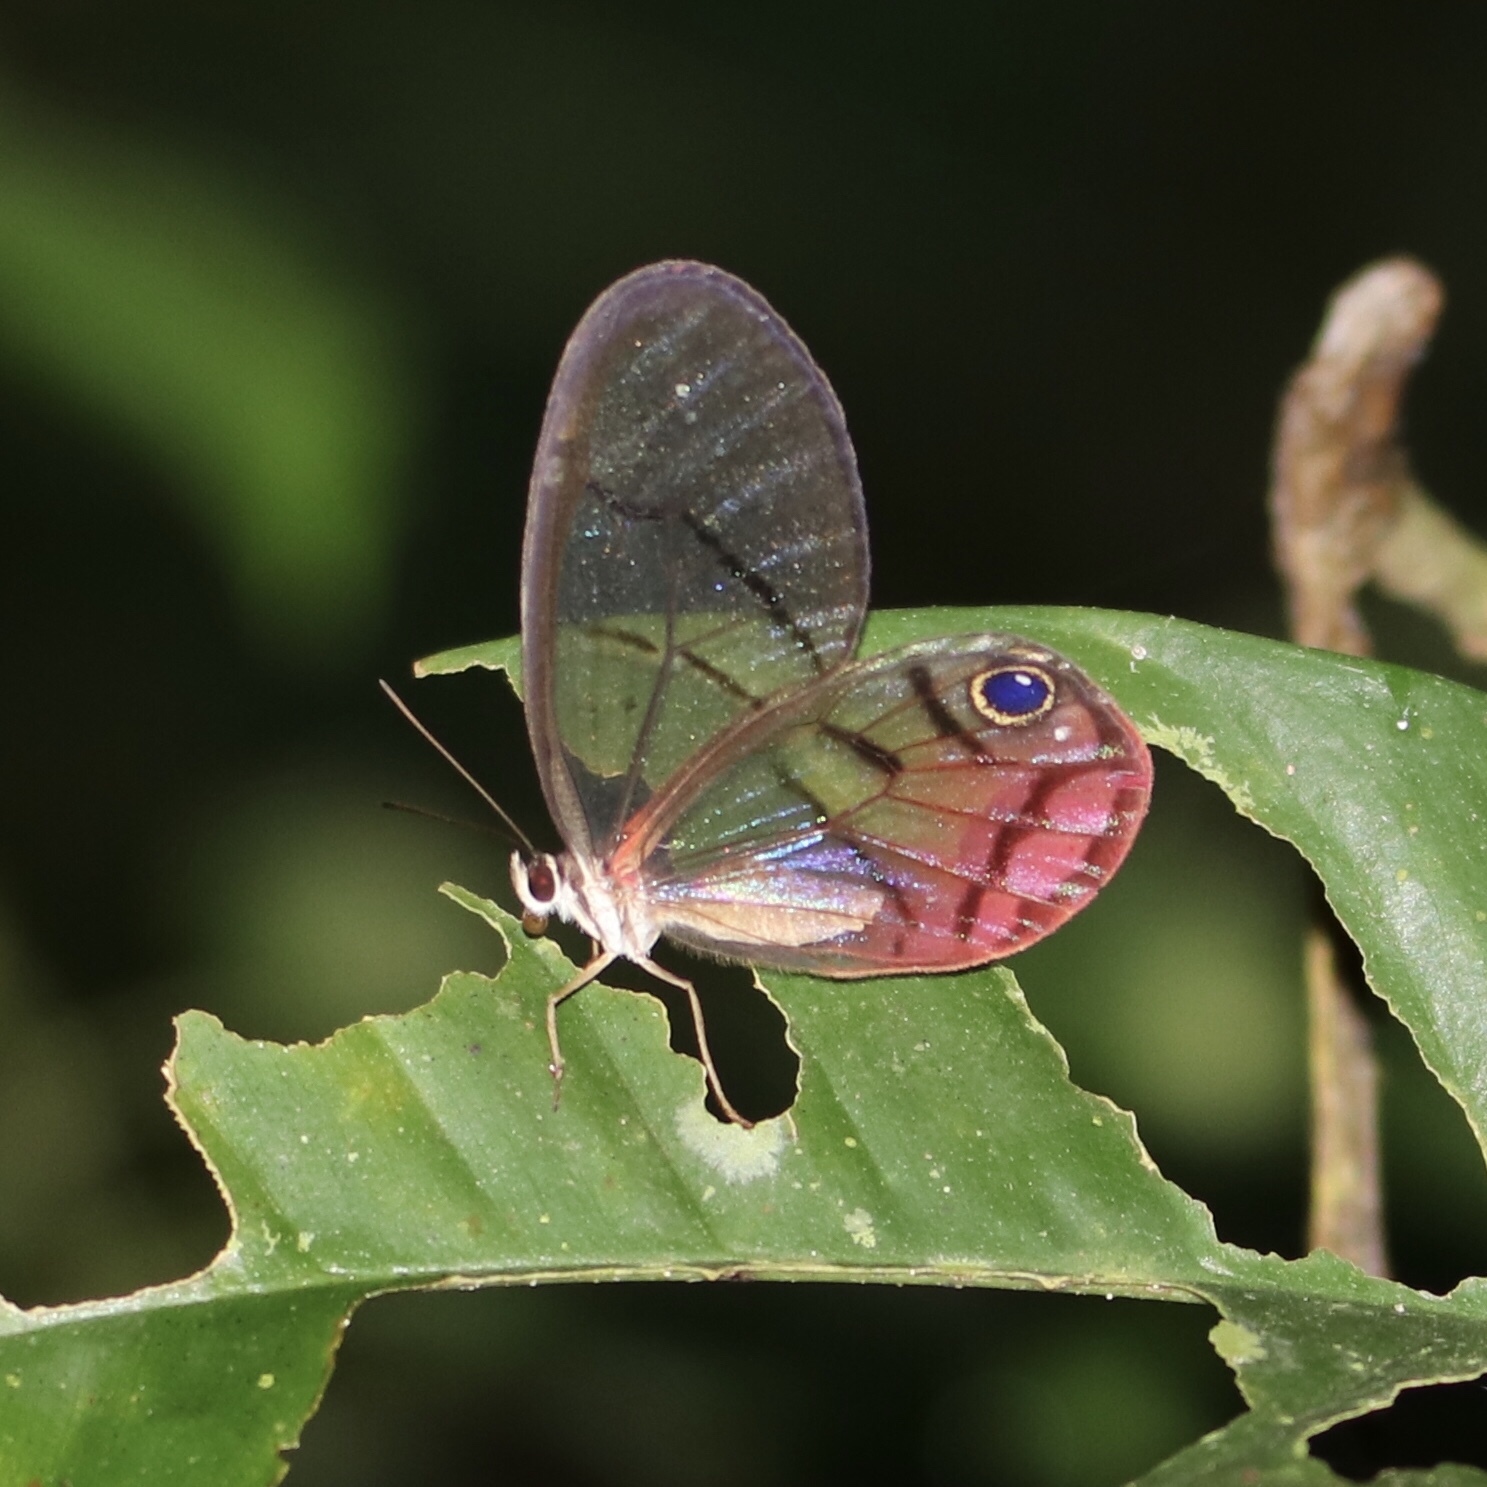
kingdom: Animalia
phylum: Arthropoda
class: Insecta
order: Lepidoptera
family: Nymphalidae
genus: Cithaerias
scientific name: Cithaerias pireta
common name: Rusted clearwing-satyr
